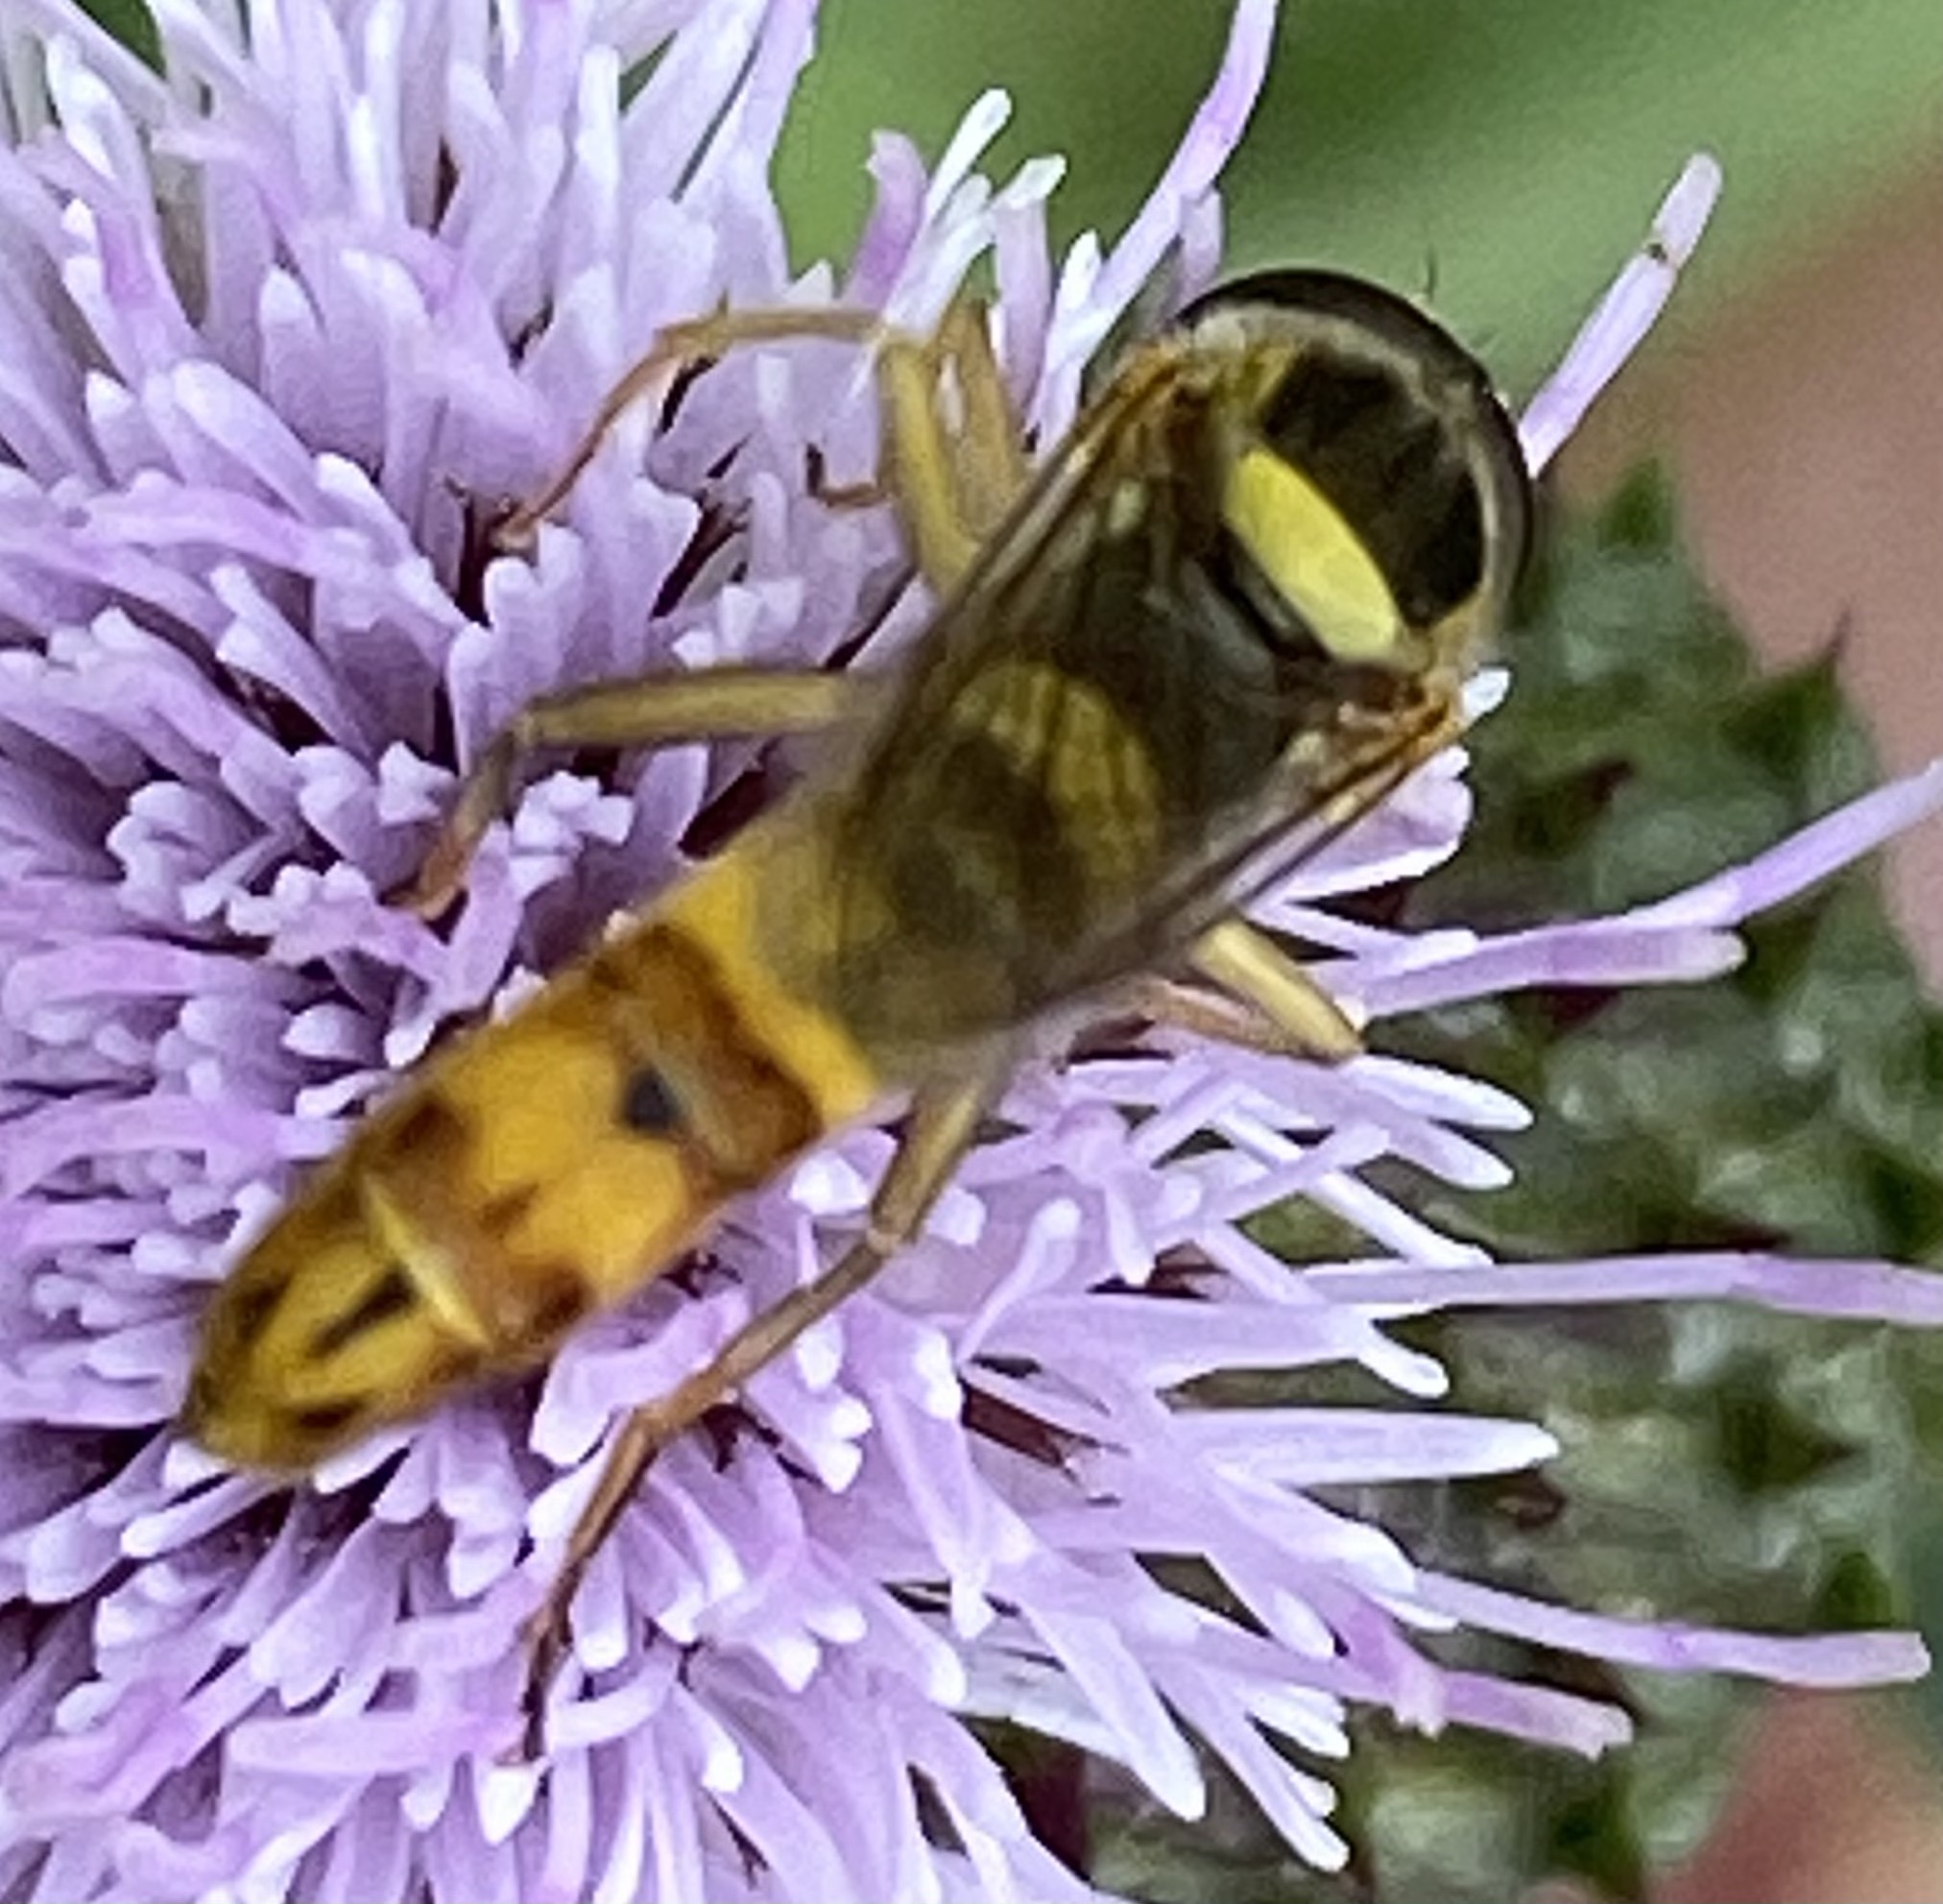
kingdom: Animalia
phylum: Arthropoda
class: Insecta
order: Diptera
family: Syrphidae
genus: Sphaerophoria
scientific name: Sphaerophoria scripta
